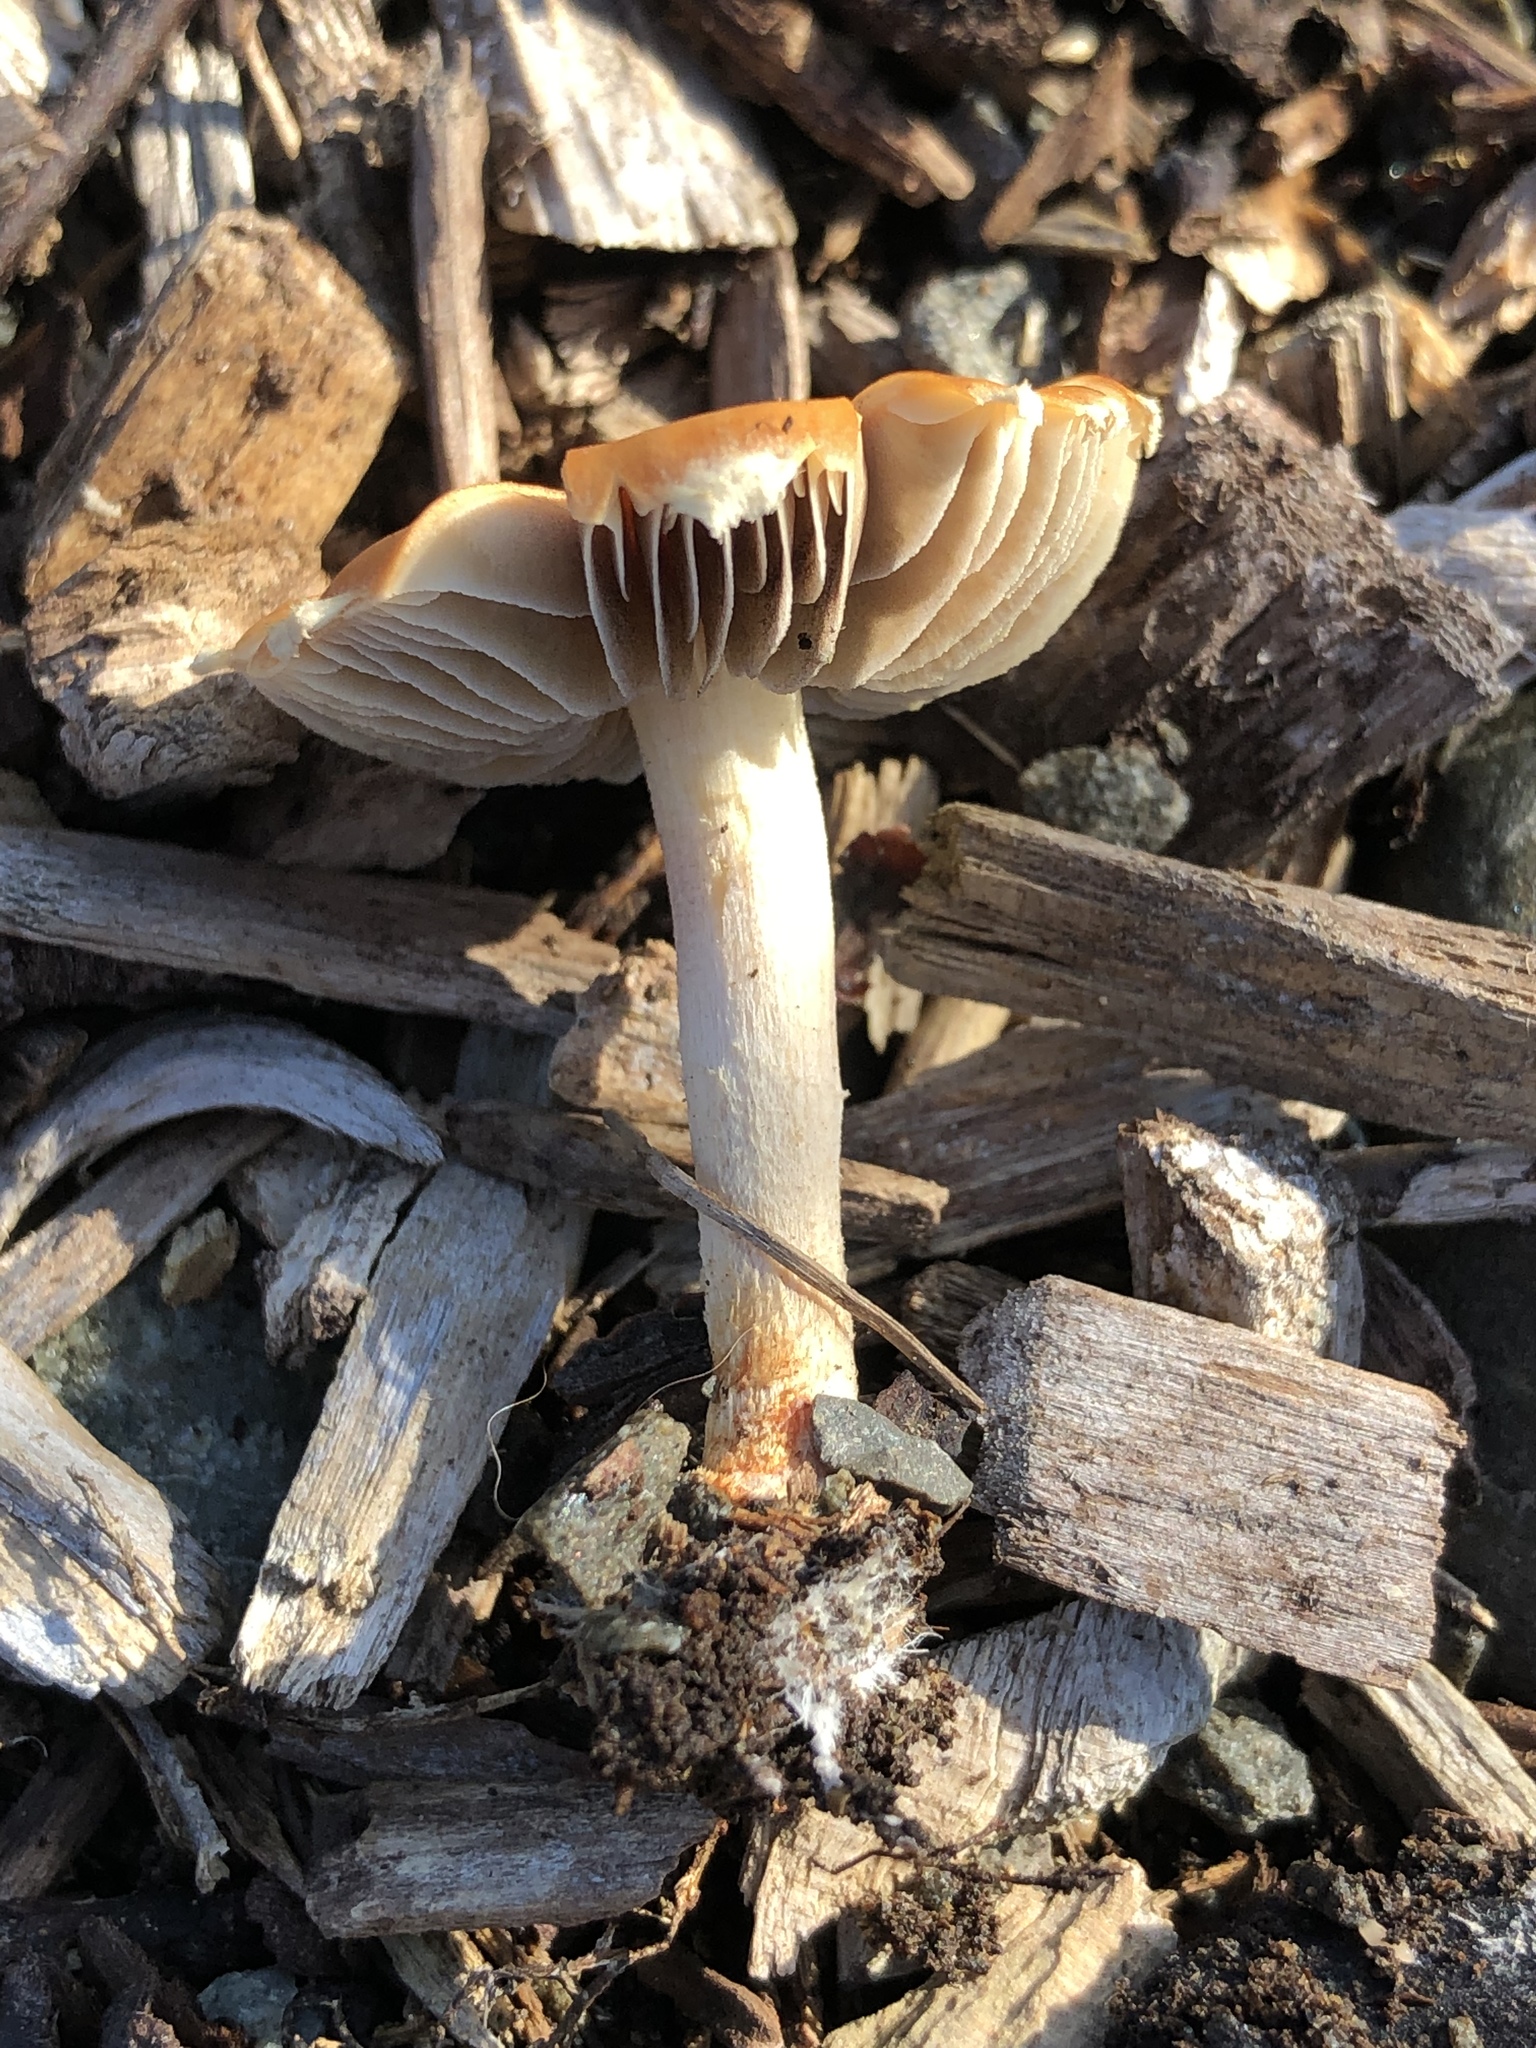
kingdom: Fungi
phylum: Basidiomycota
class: Agaricomycetes
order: Agaricales
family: Strophariaceae
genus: Leratiomyces
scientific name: Leratiomyces ceres
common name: Redlead roundhead
